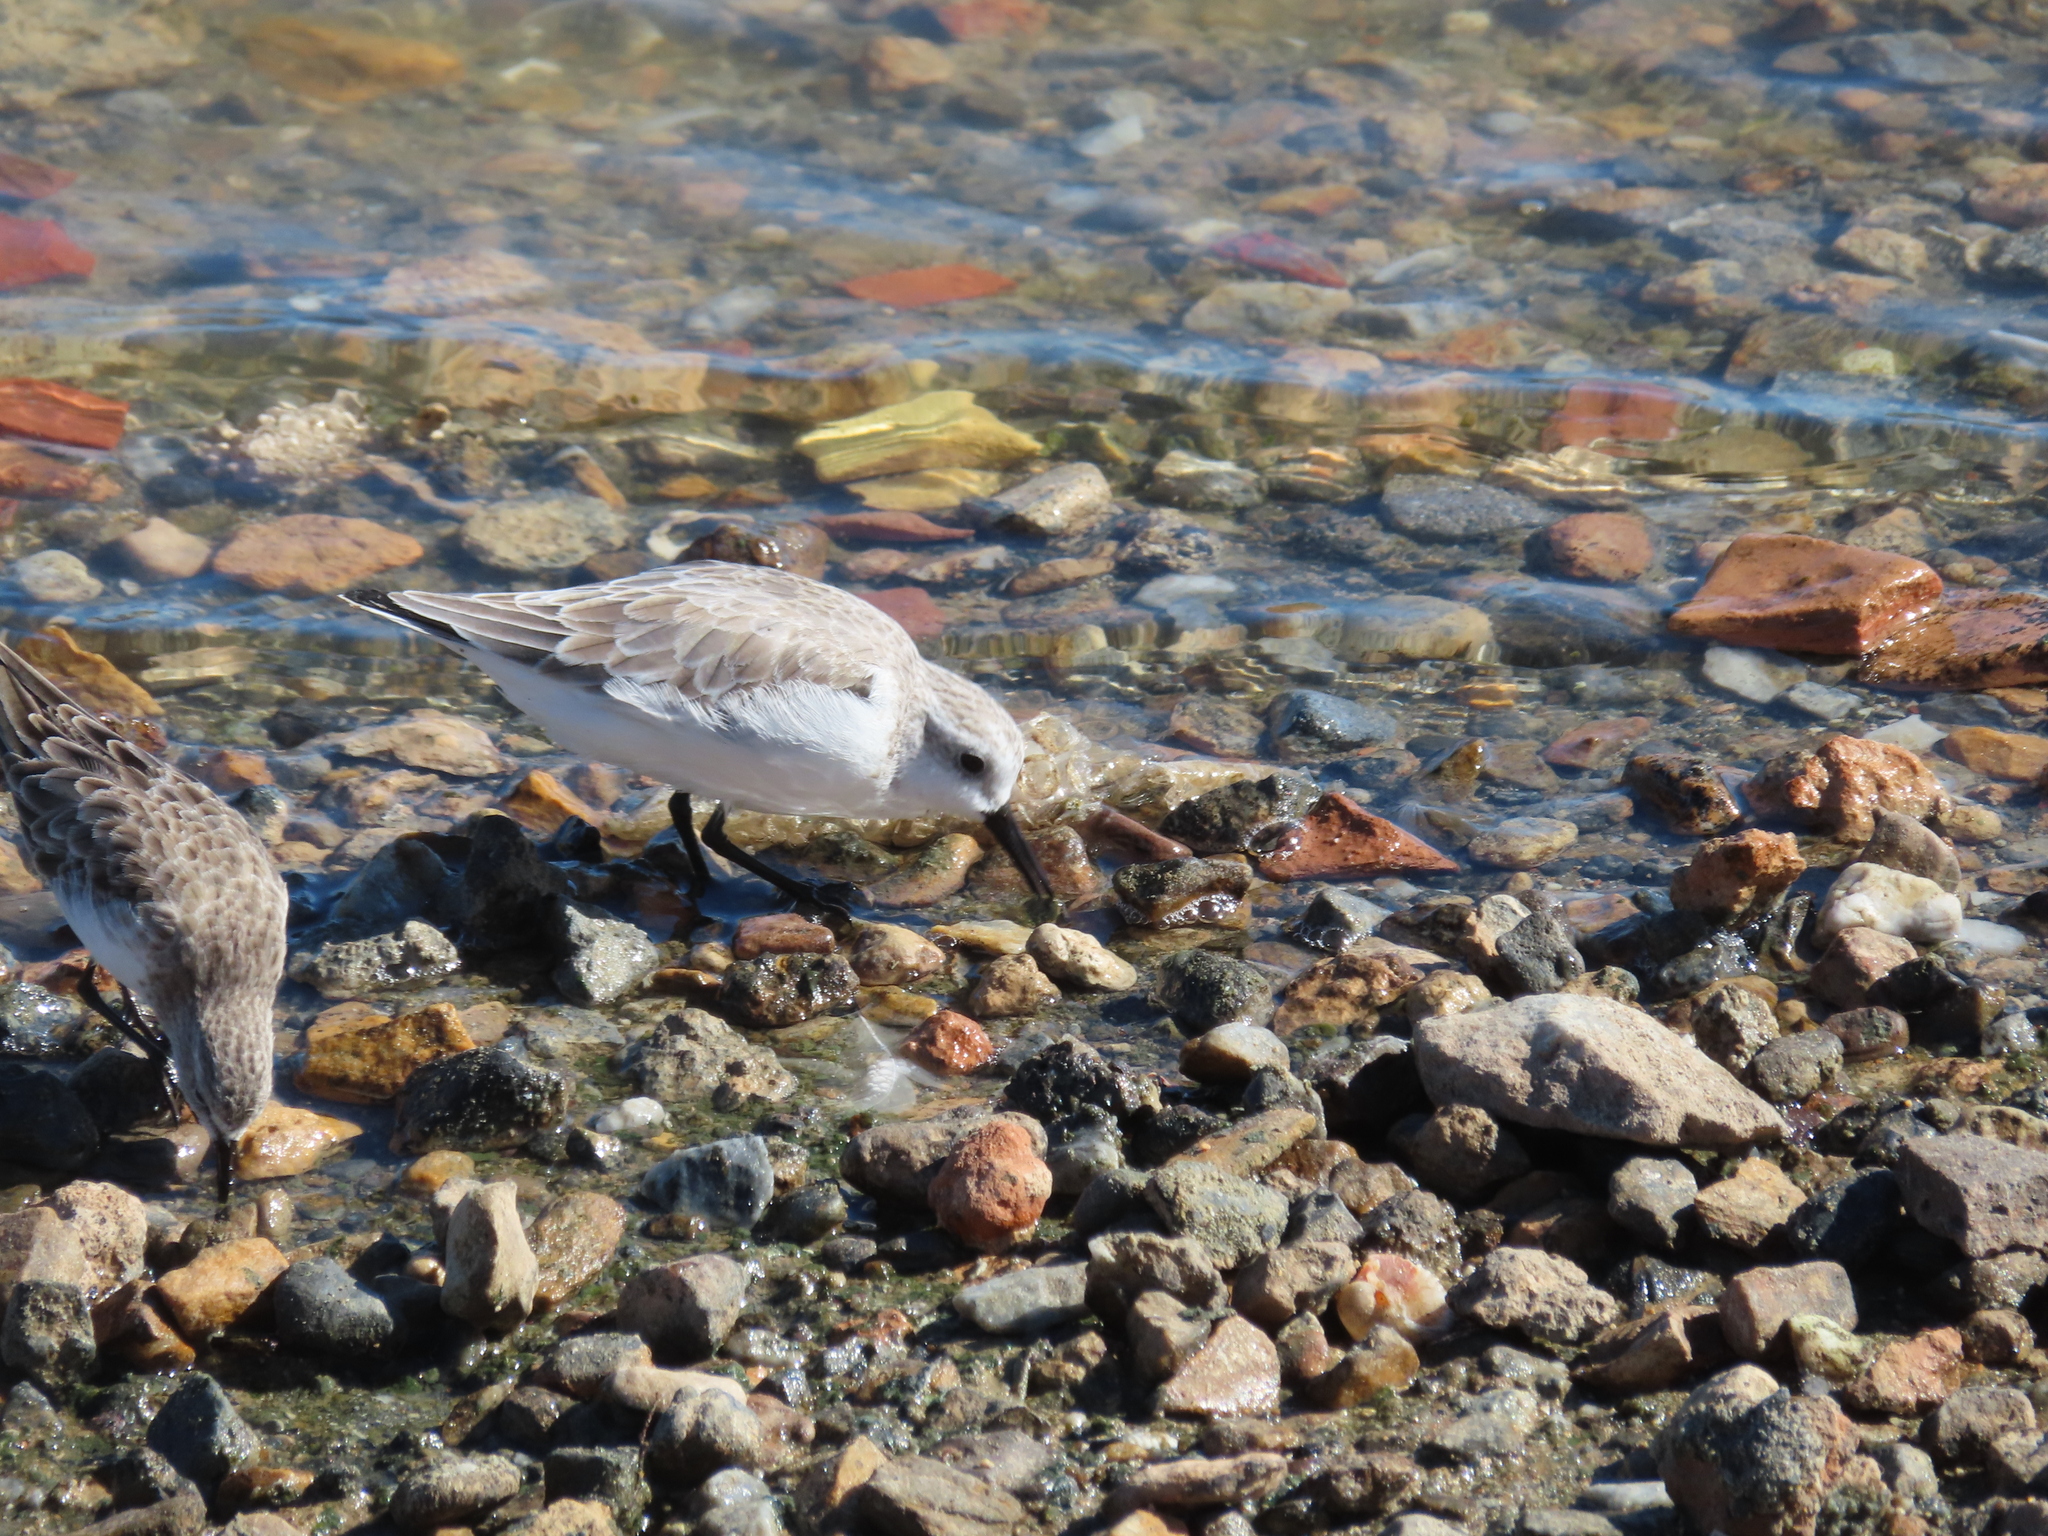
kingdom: Animalia
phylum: Chordata
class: Aves
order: Charadriiformes
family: Scolopacidae
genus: Calidris
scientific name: Calidris alba
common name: Sanderling
